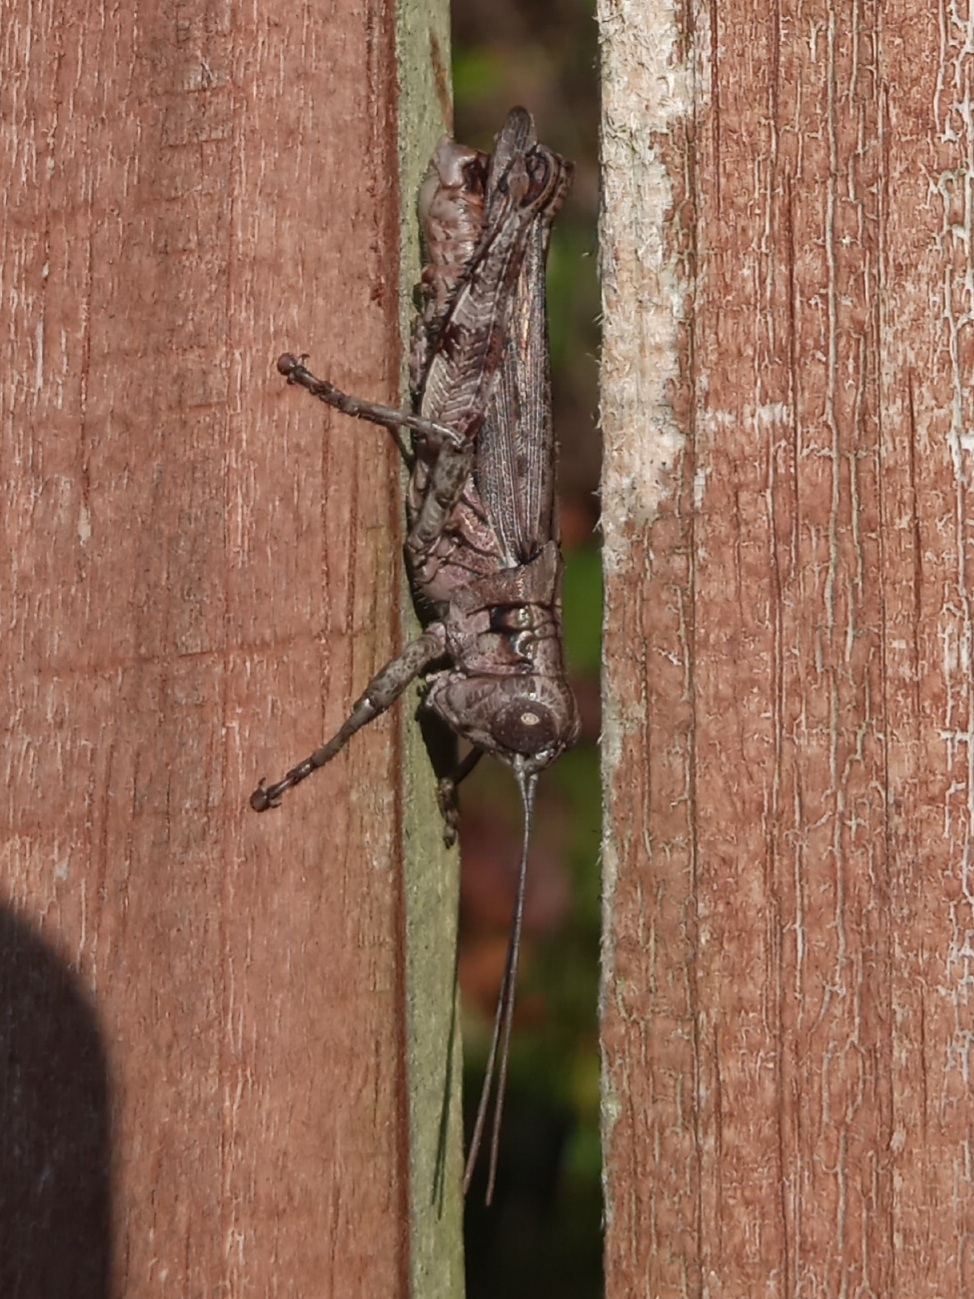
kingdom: Animalia
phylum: Arthropoda
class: Insecta
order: Orthoptera
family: Acrididae
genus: Melanoplus
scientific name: Melanoplus punctulatus
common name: Pine-tree spur-throat grasshopper
